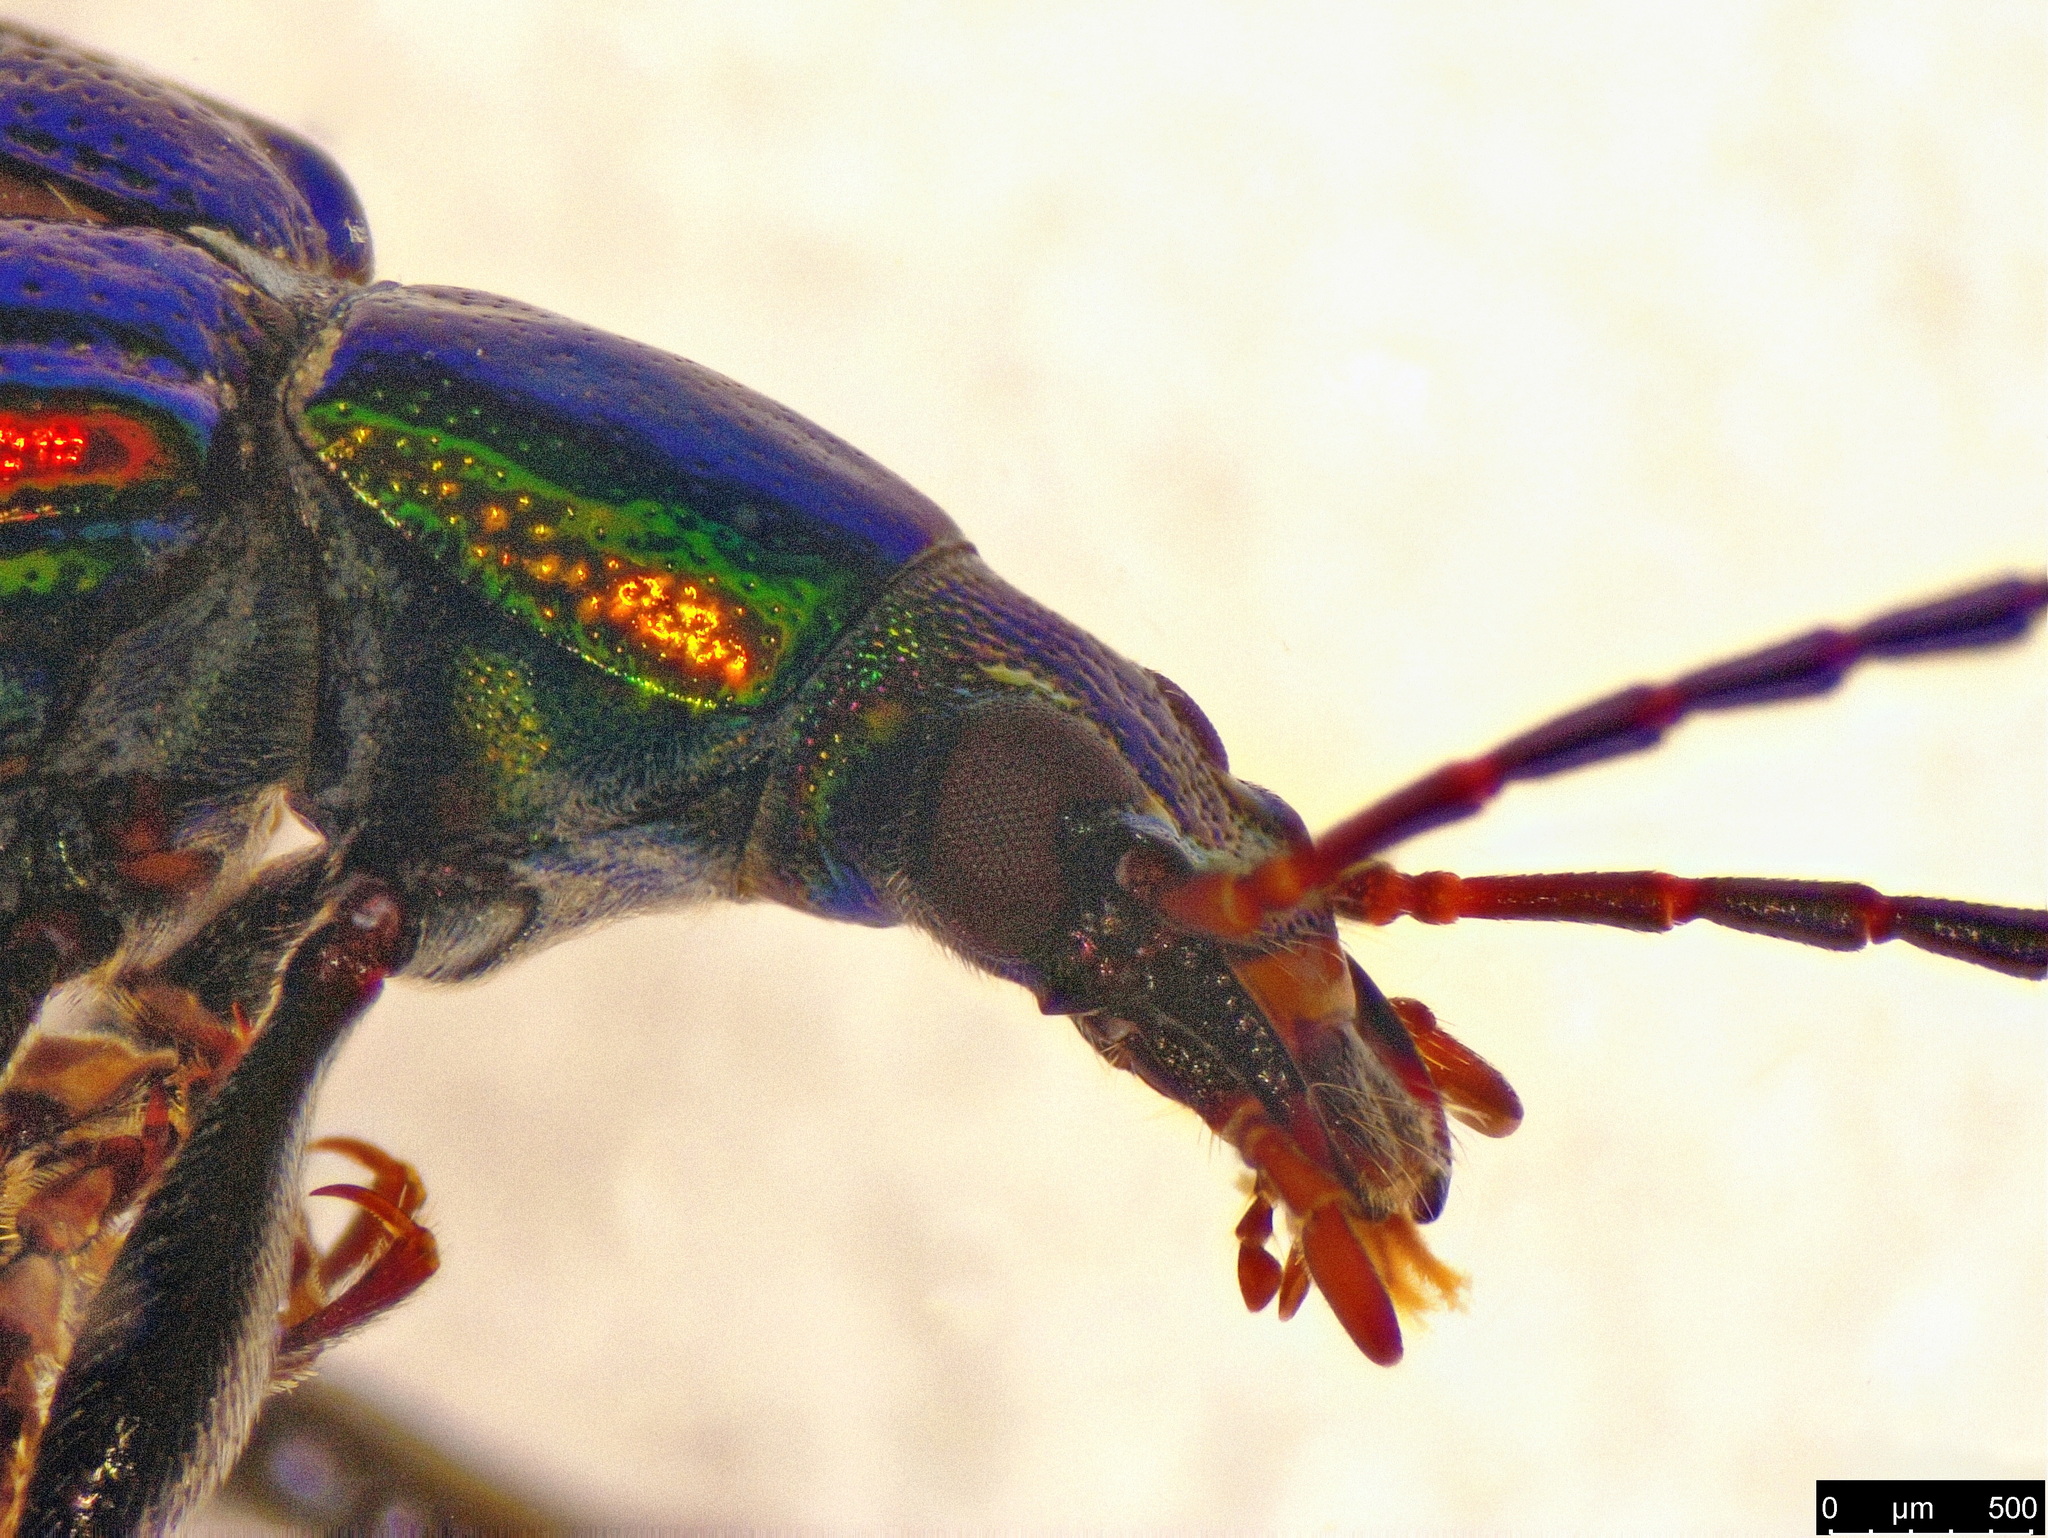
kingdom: Animalia
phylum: Arthropoda
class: Insecta
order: Coleoptera
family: Tenebrionidae
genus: Lepturidea
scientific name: Lepturidea
